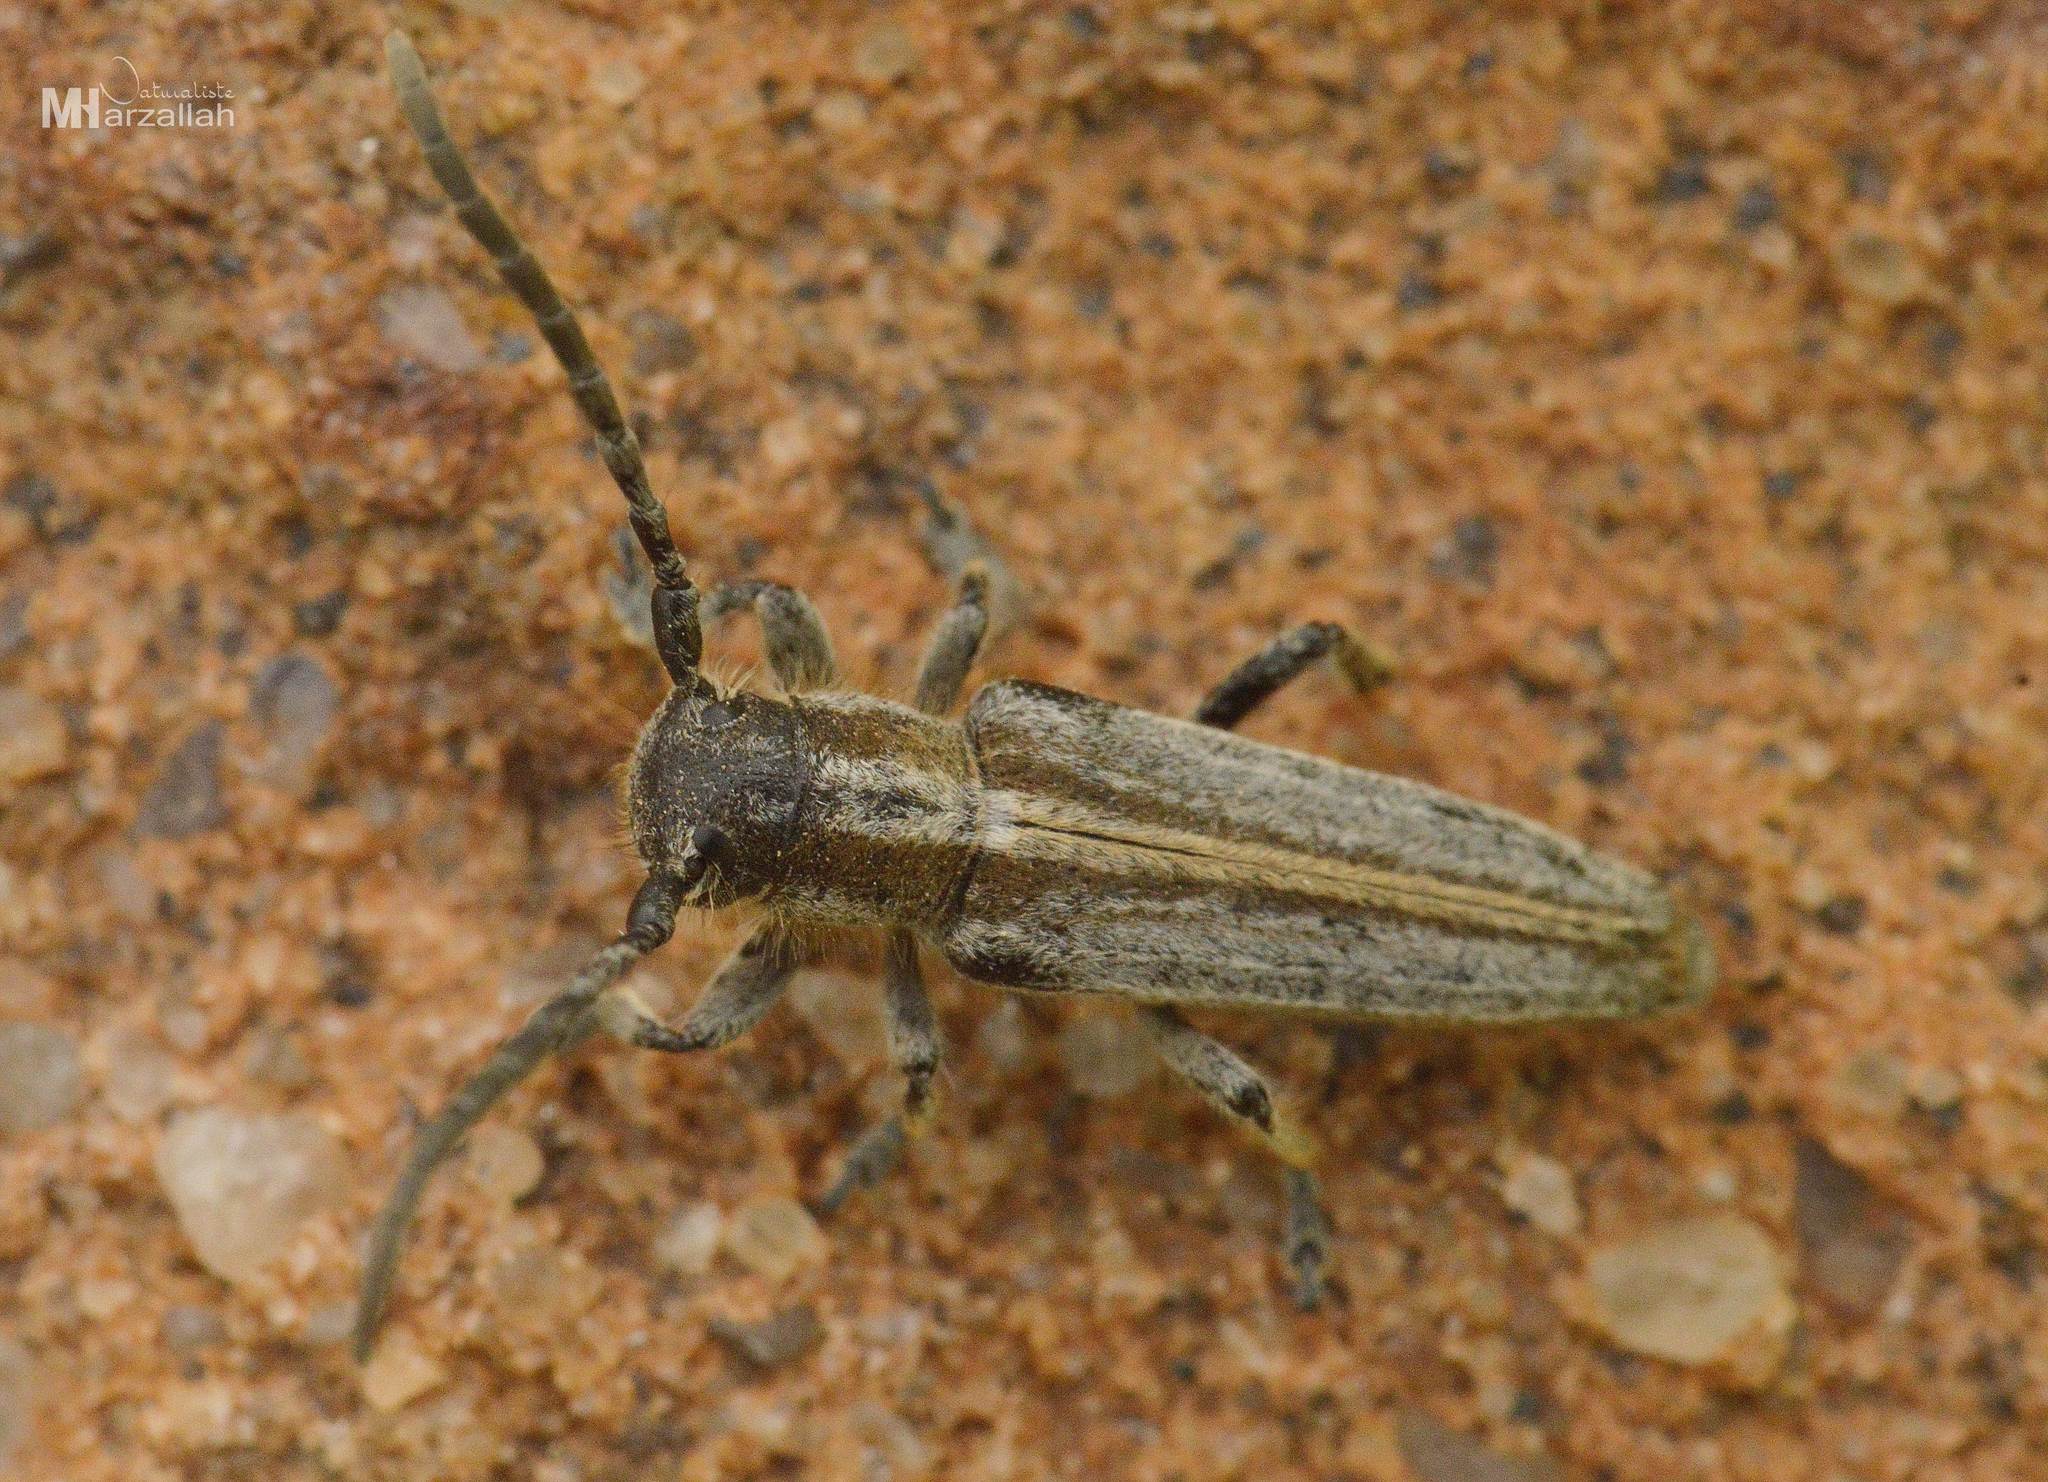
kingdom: Animalia
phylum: Arthropoda
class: Insecta
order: Coleoptera
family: Cerambycidae
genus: Conizonia
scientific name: Conizonia allardi
